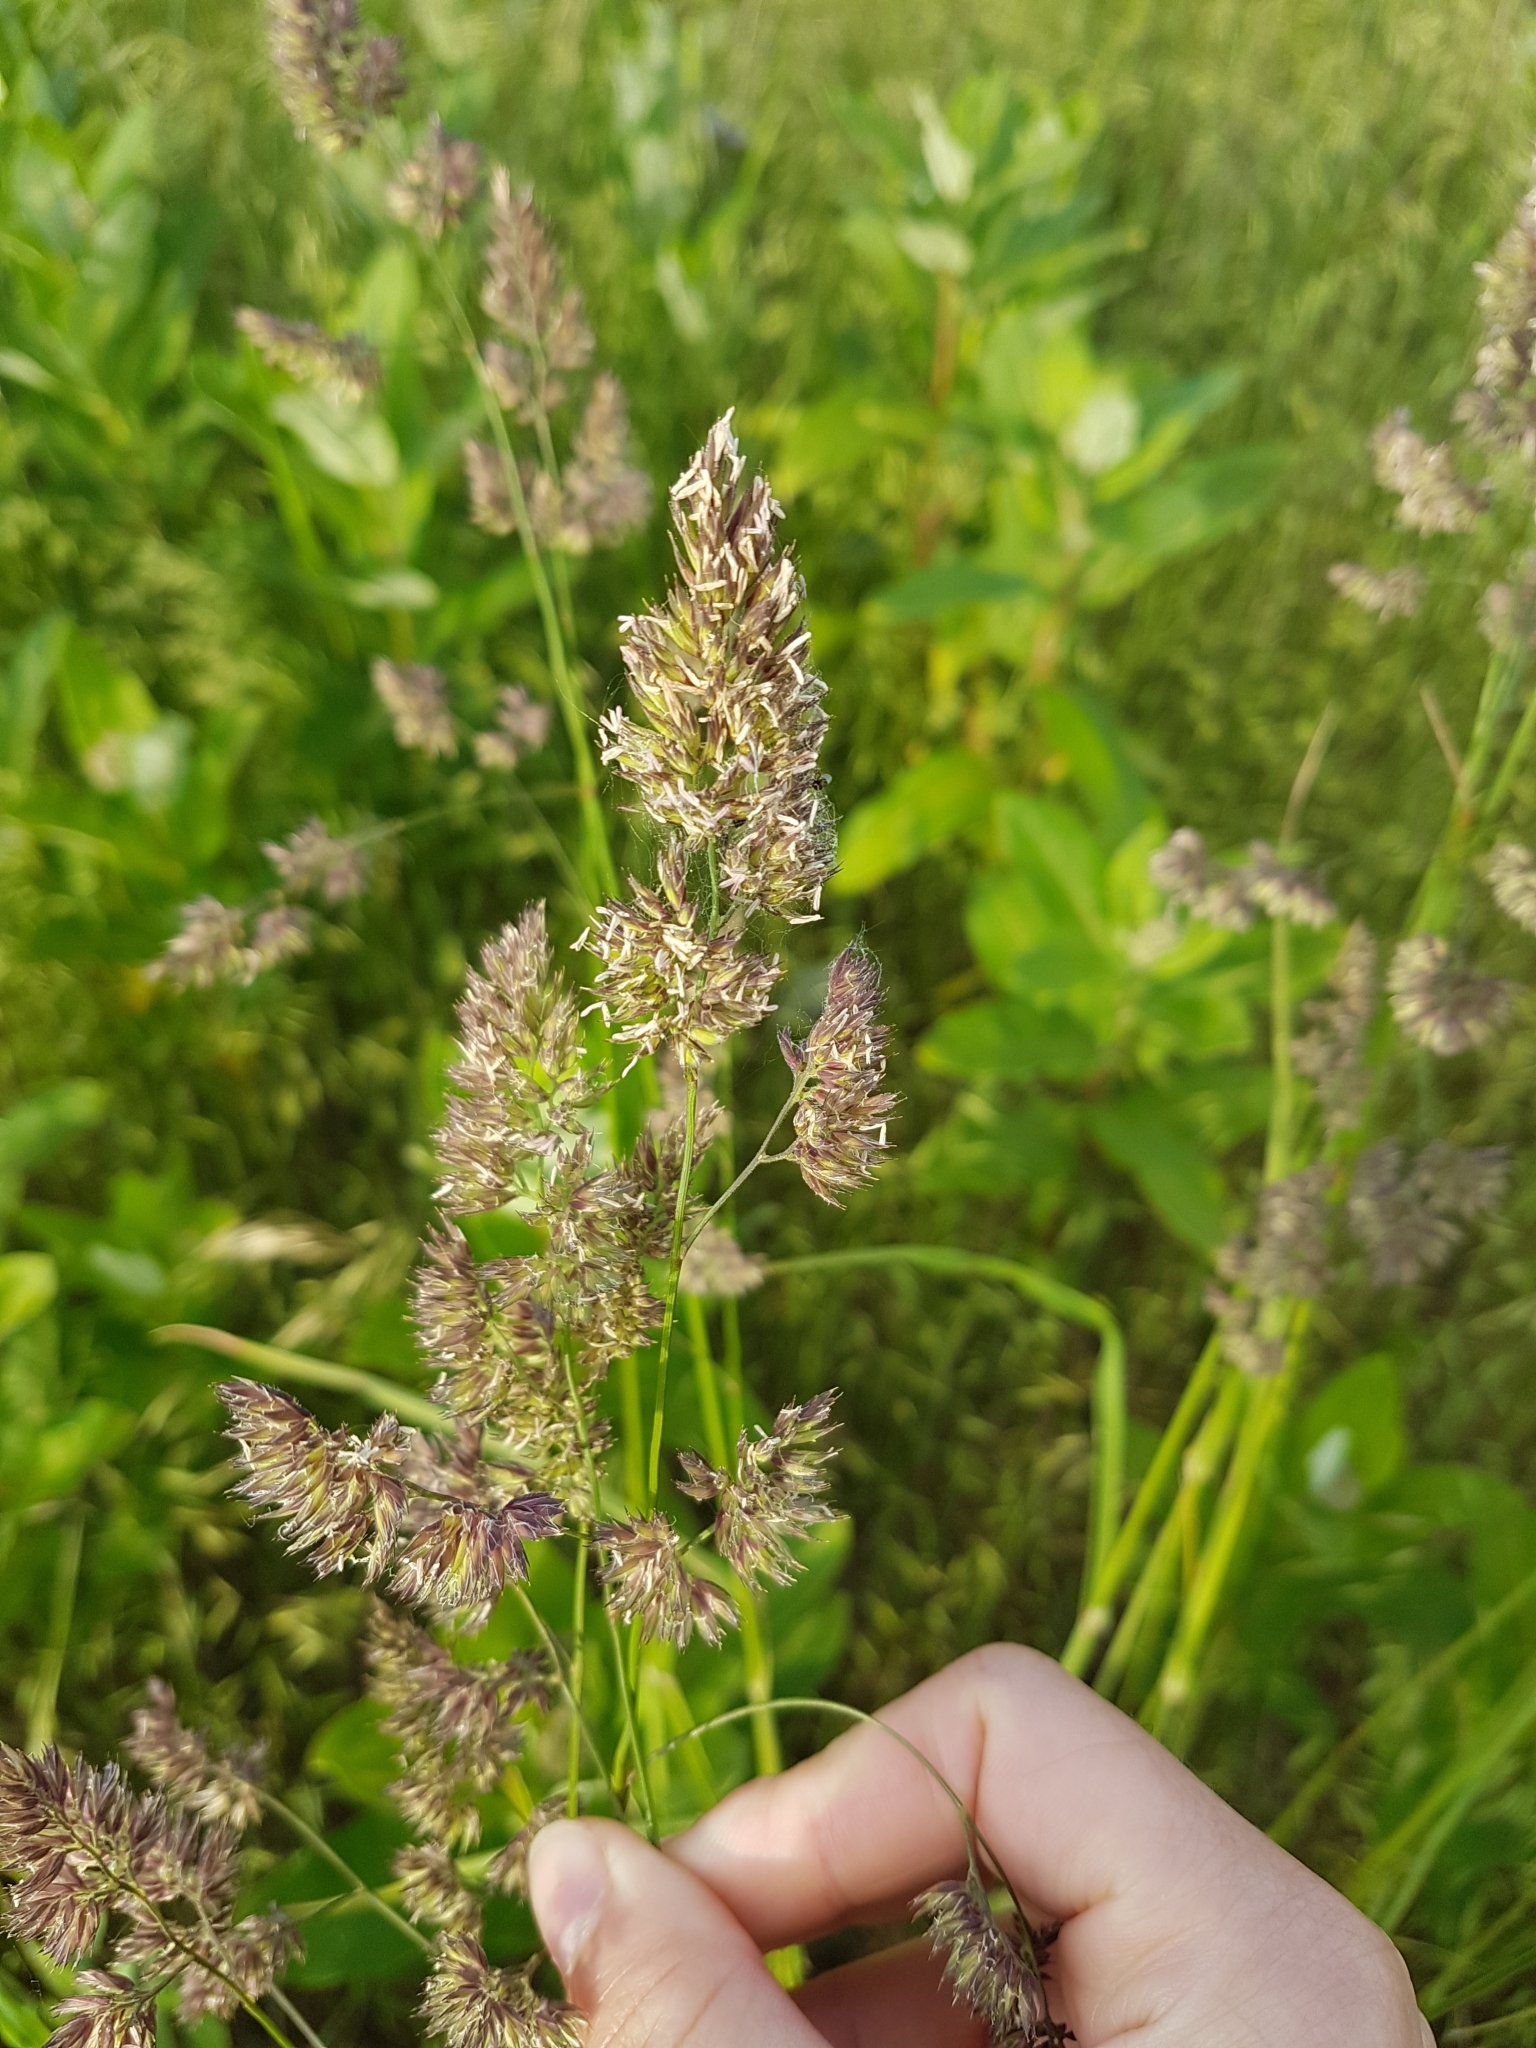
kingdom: Plantae
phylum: Tracheophyta
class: Liliopsida
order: Poales
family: Poaceae
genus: Dactylis
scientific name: Dactylis glomerata
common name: Orchardgrass
